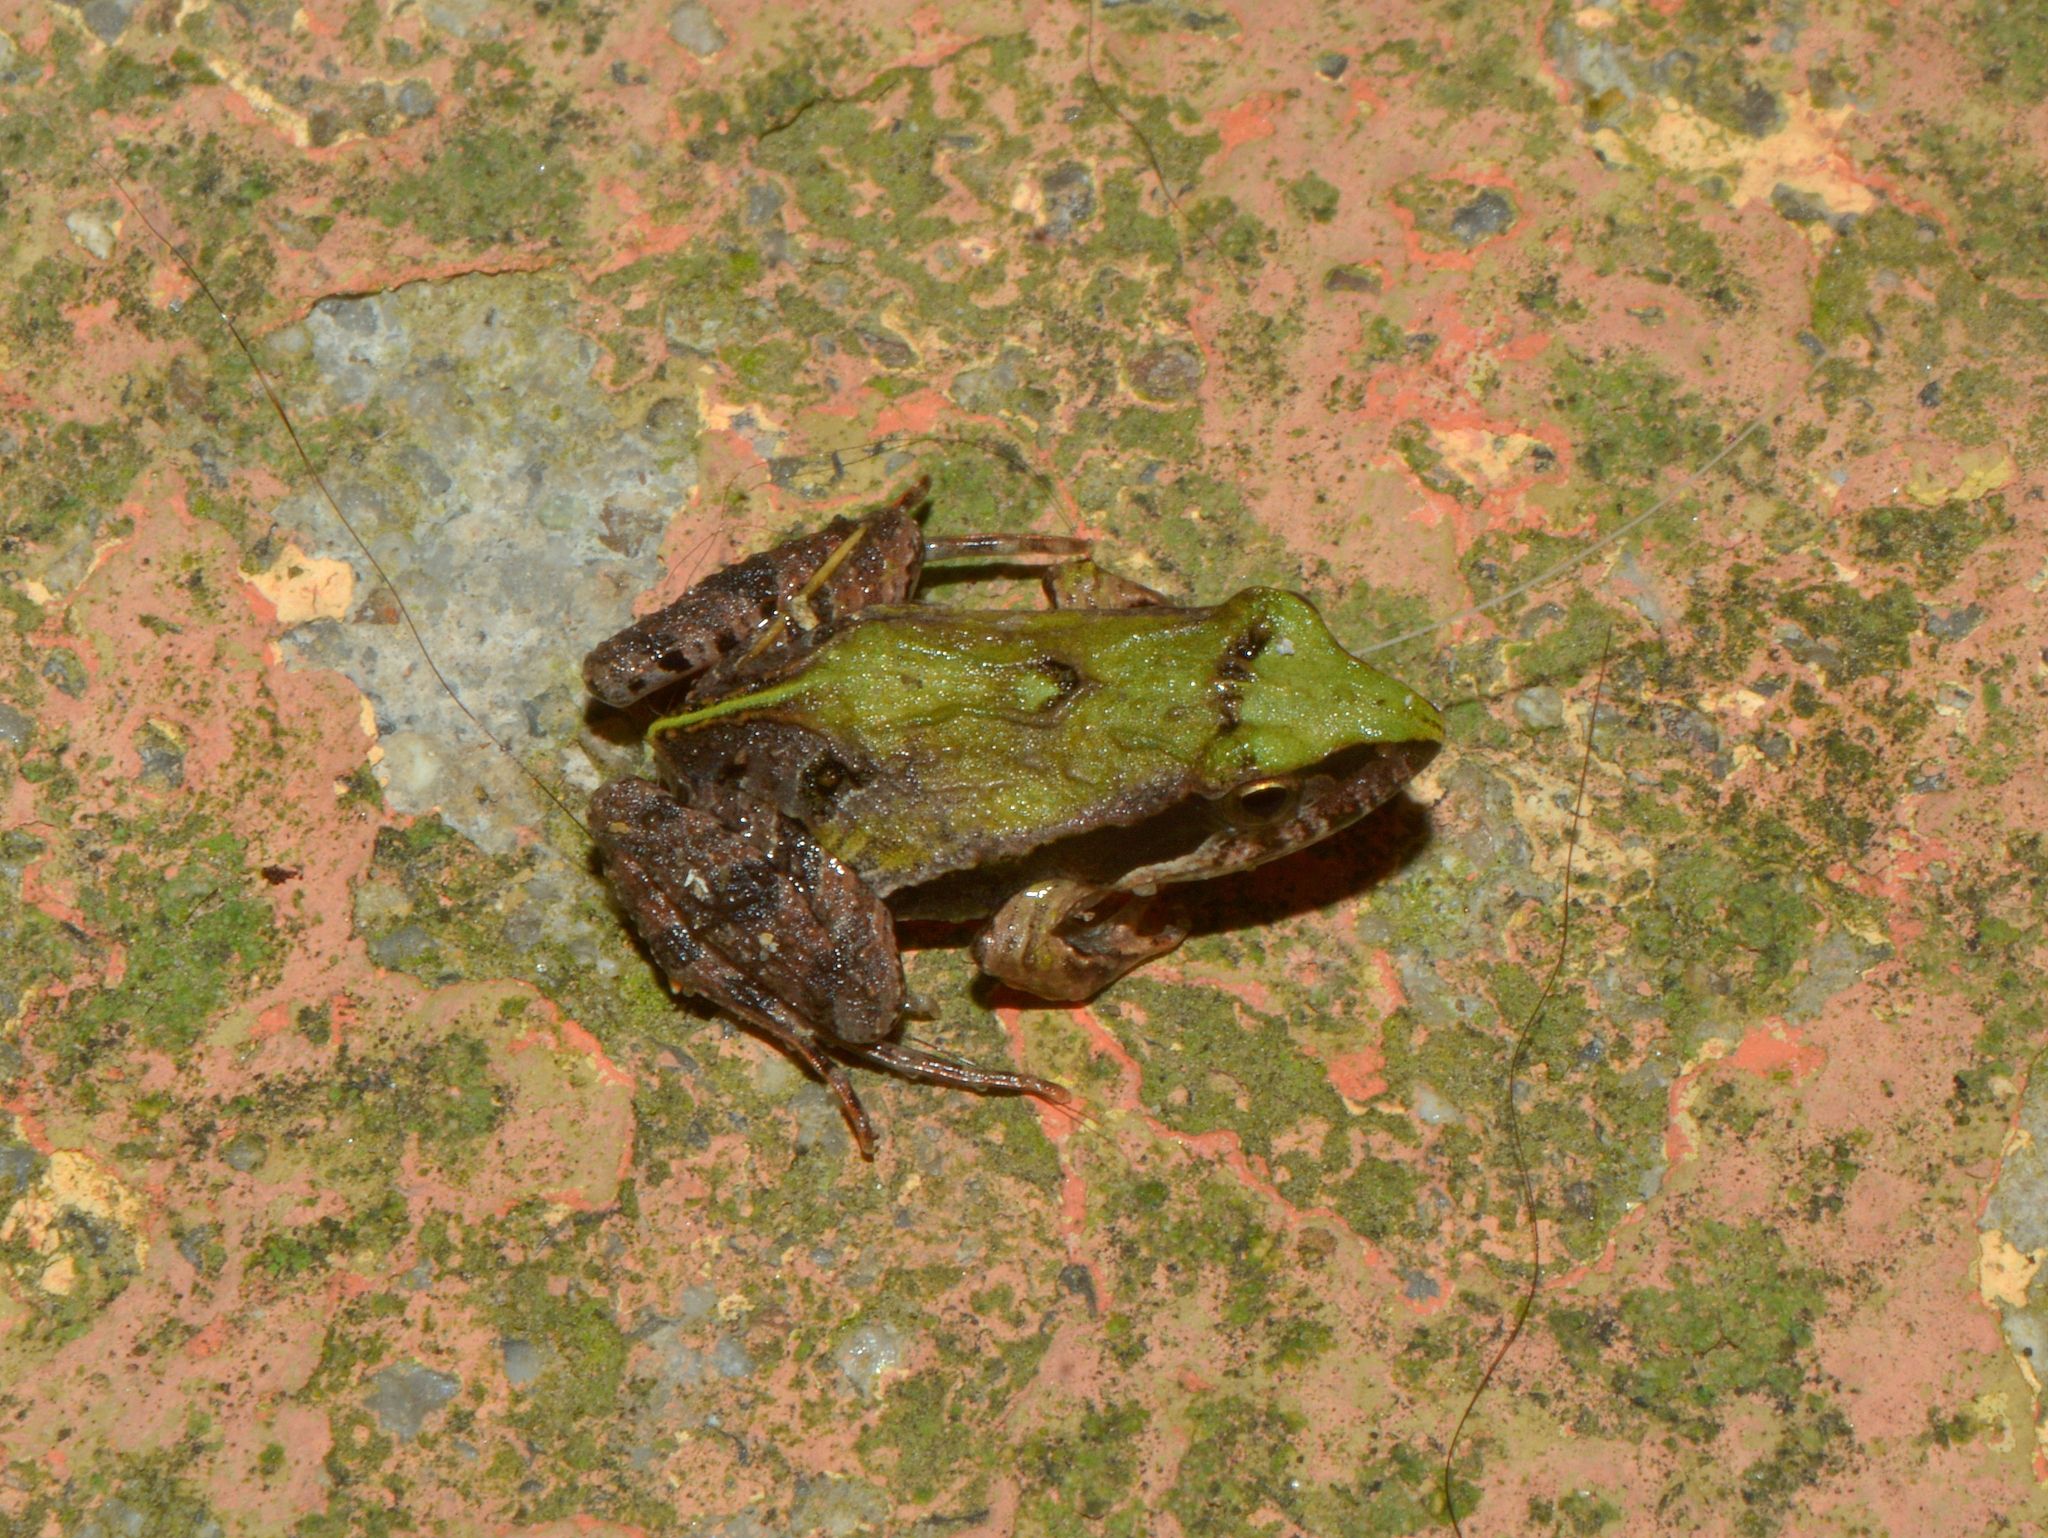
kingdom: Animalia
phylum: Chordata
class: Amphibia
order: Anura
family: Leptodactylidae
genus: Physalaemus
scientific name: Physalaemus gracilis
